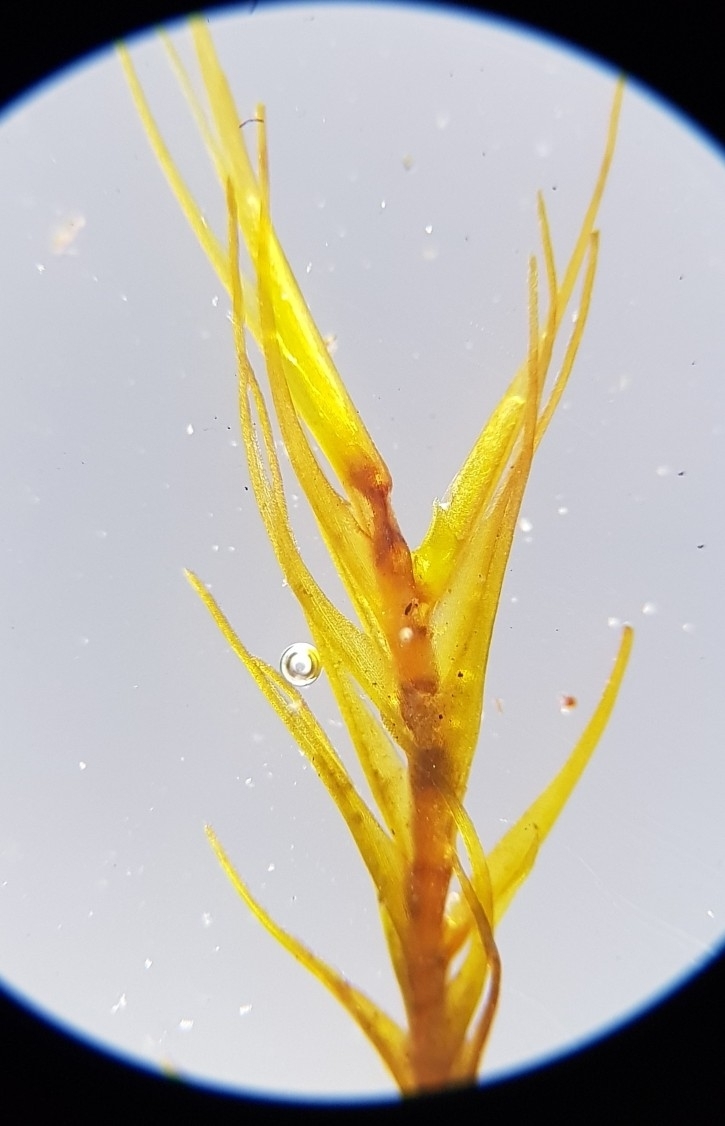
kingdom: Plantae
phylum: Bryophyta
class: Bryopsida
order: Scouleriales
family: Flexitrichaceae
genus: Flexitrichum
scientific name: Flexitrichum gracile
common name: Slender ditrichum
